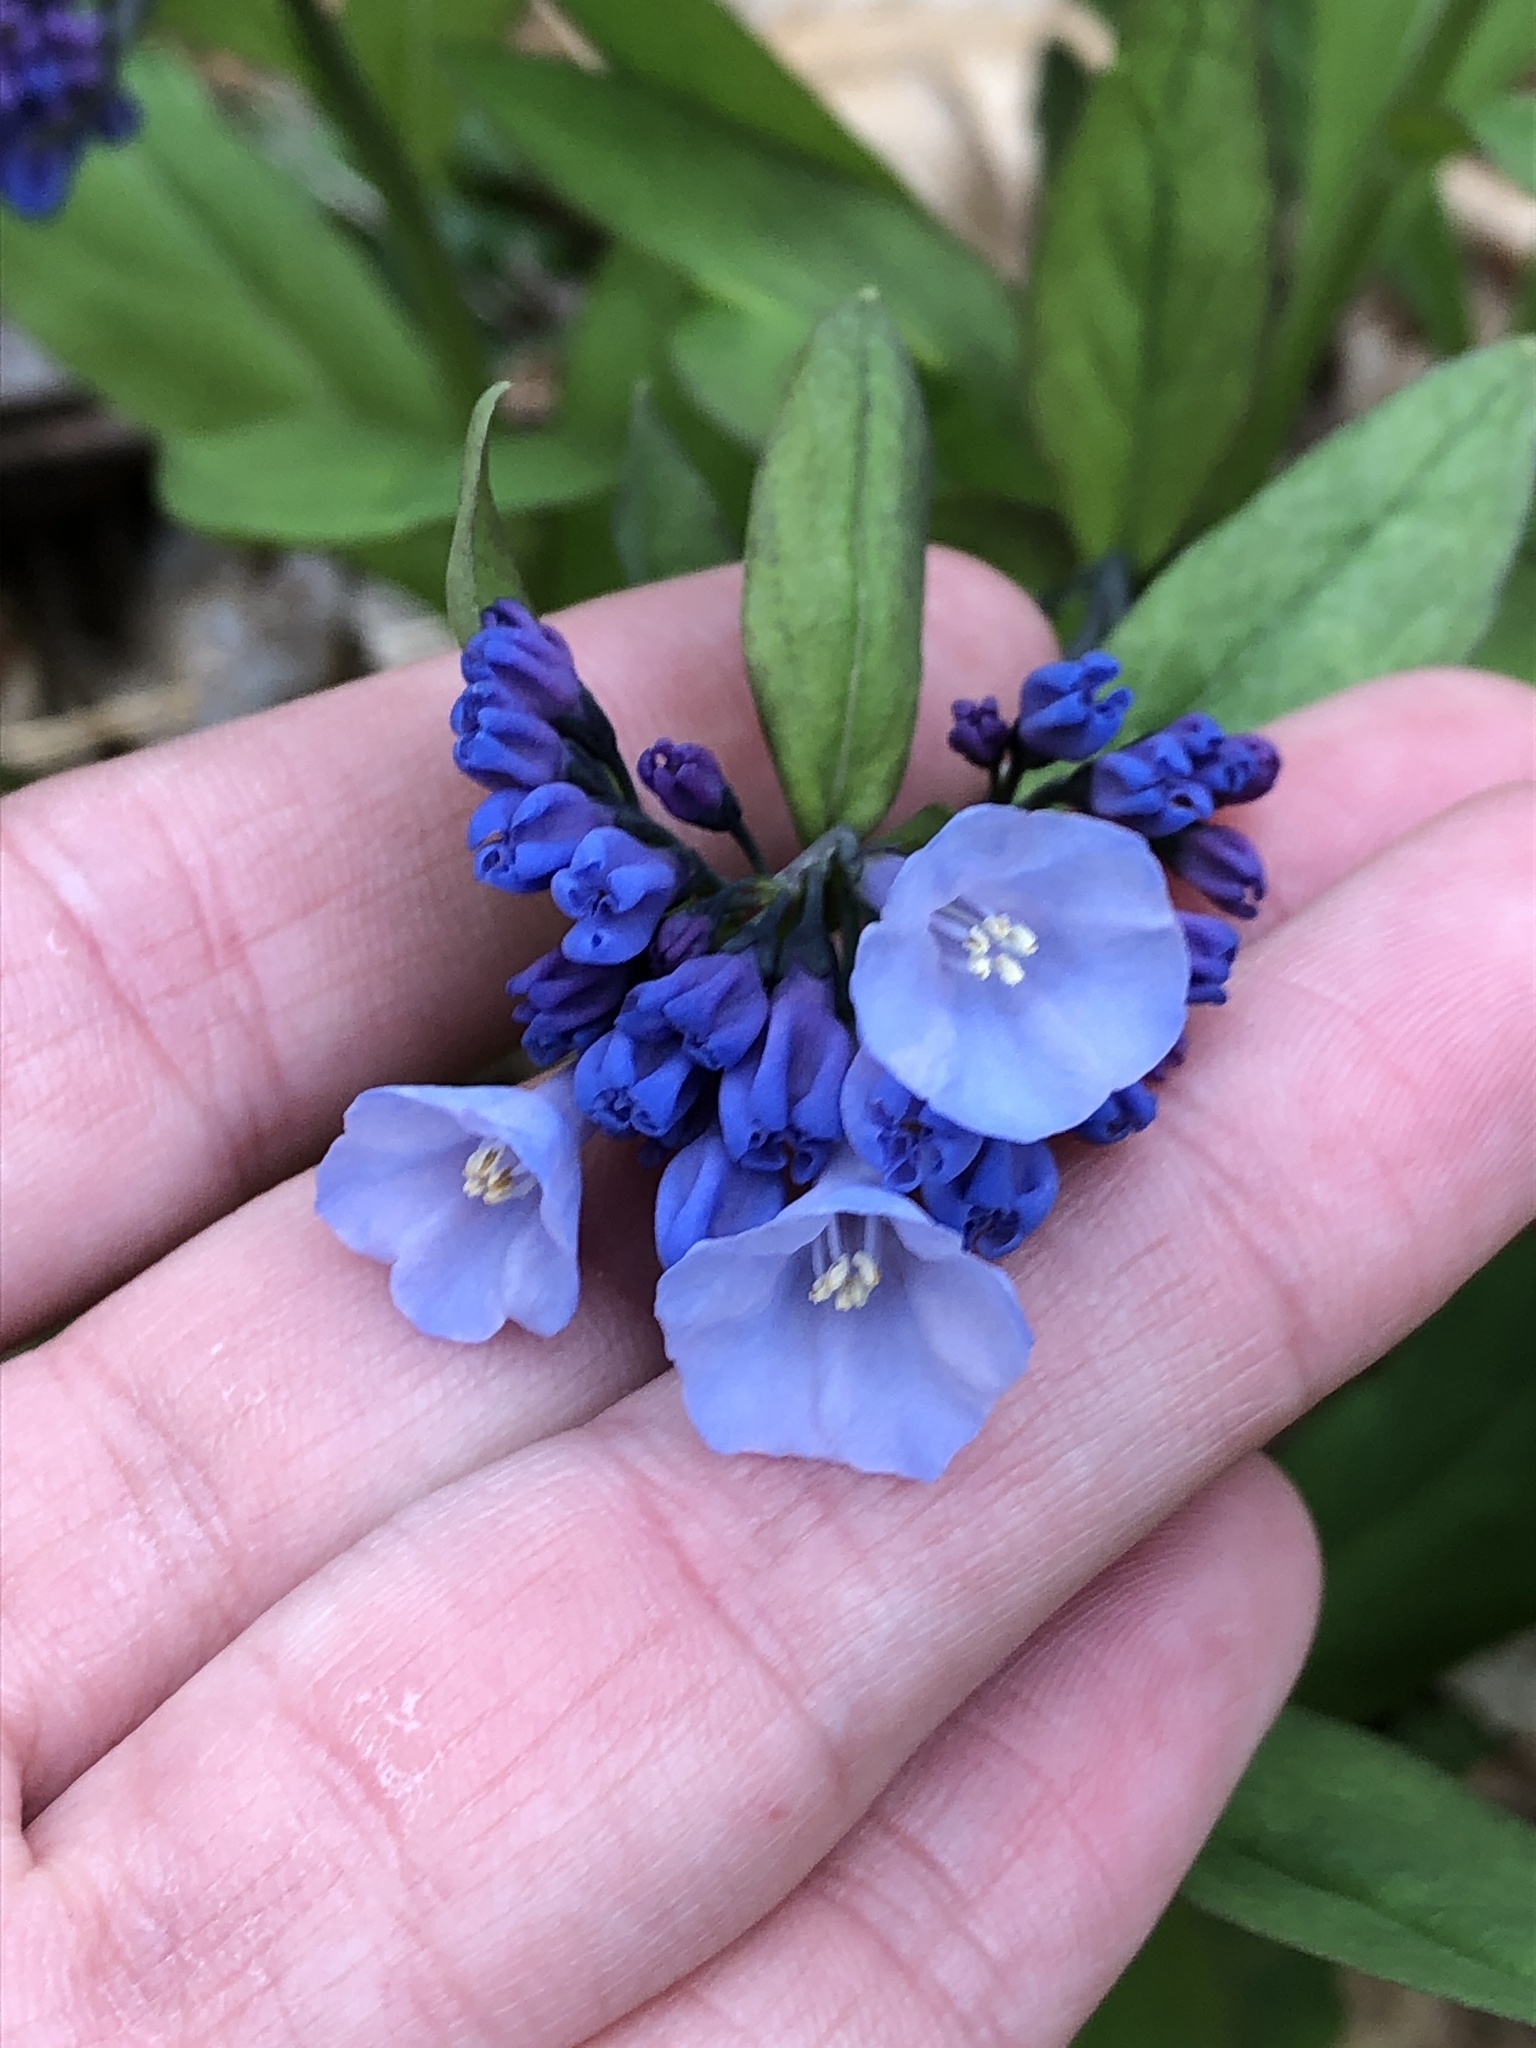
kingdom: Plantae
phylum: Tracheophyta
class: Magnoliopsida
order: Boraginales
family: Boraginaceae
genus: Mertensia
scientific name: Mertensia virginica
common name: Virginia bluebells
